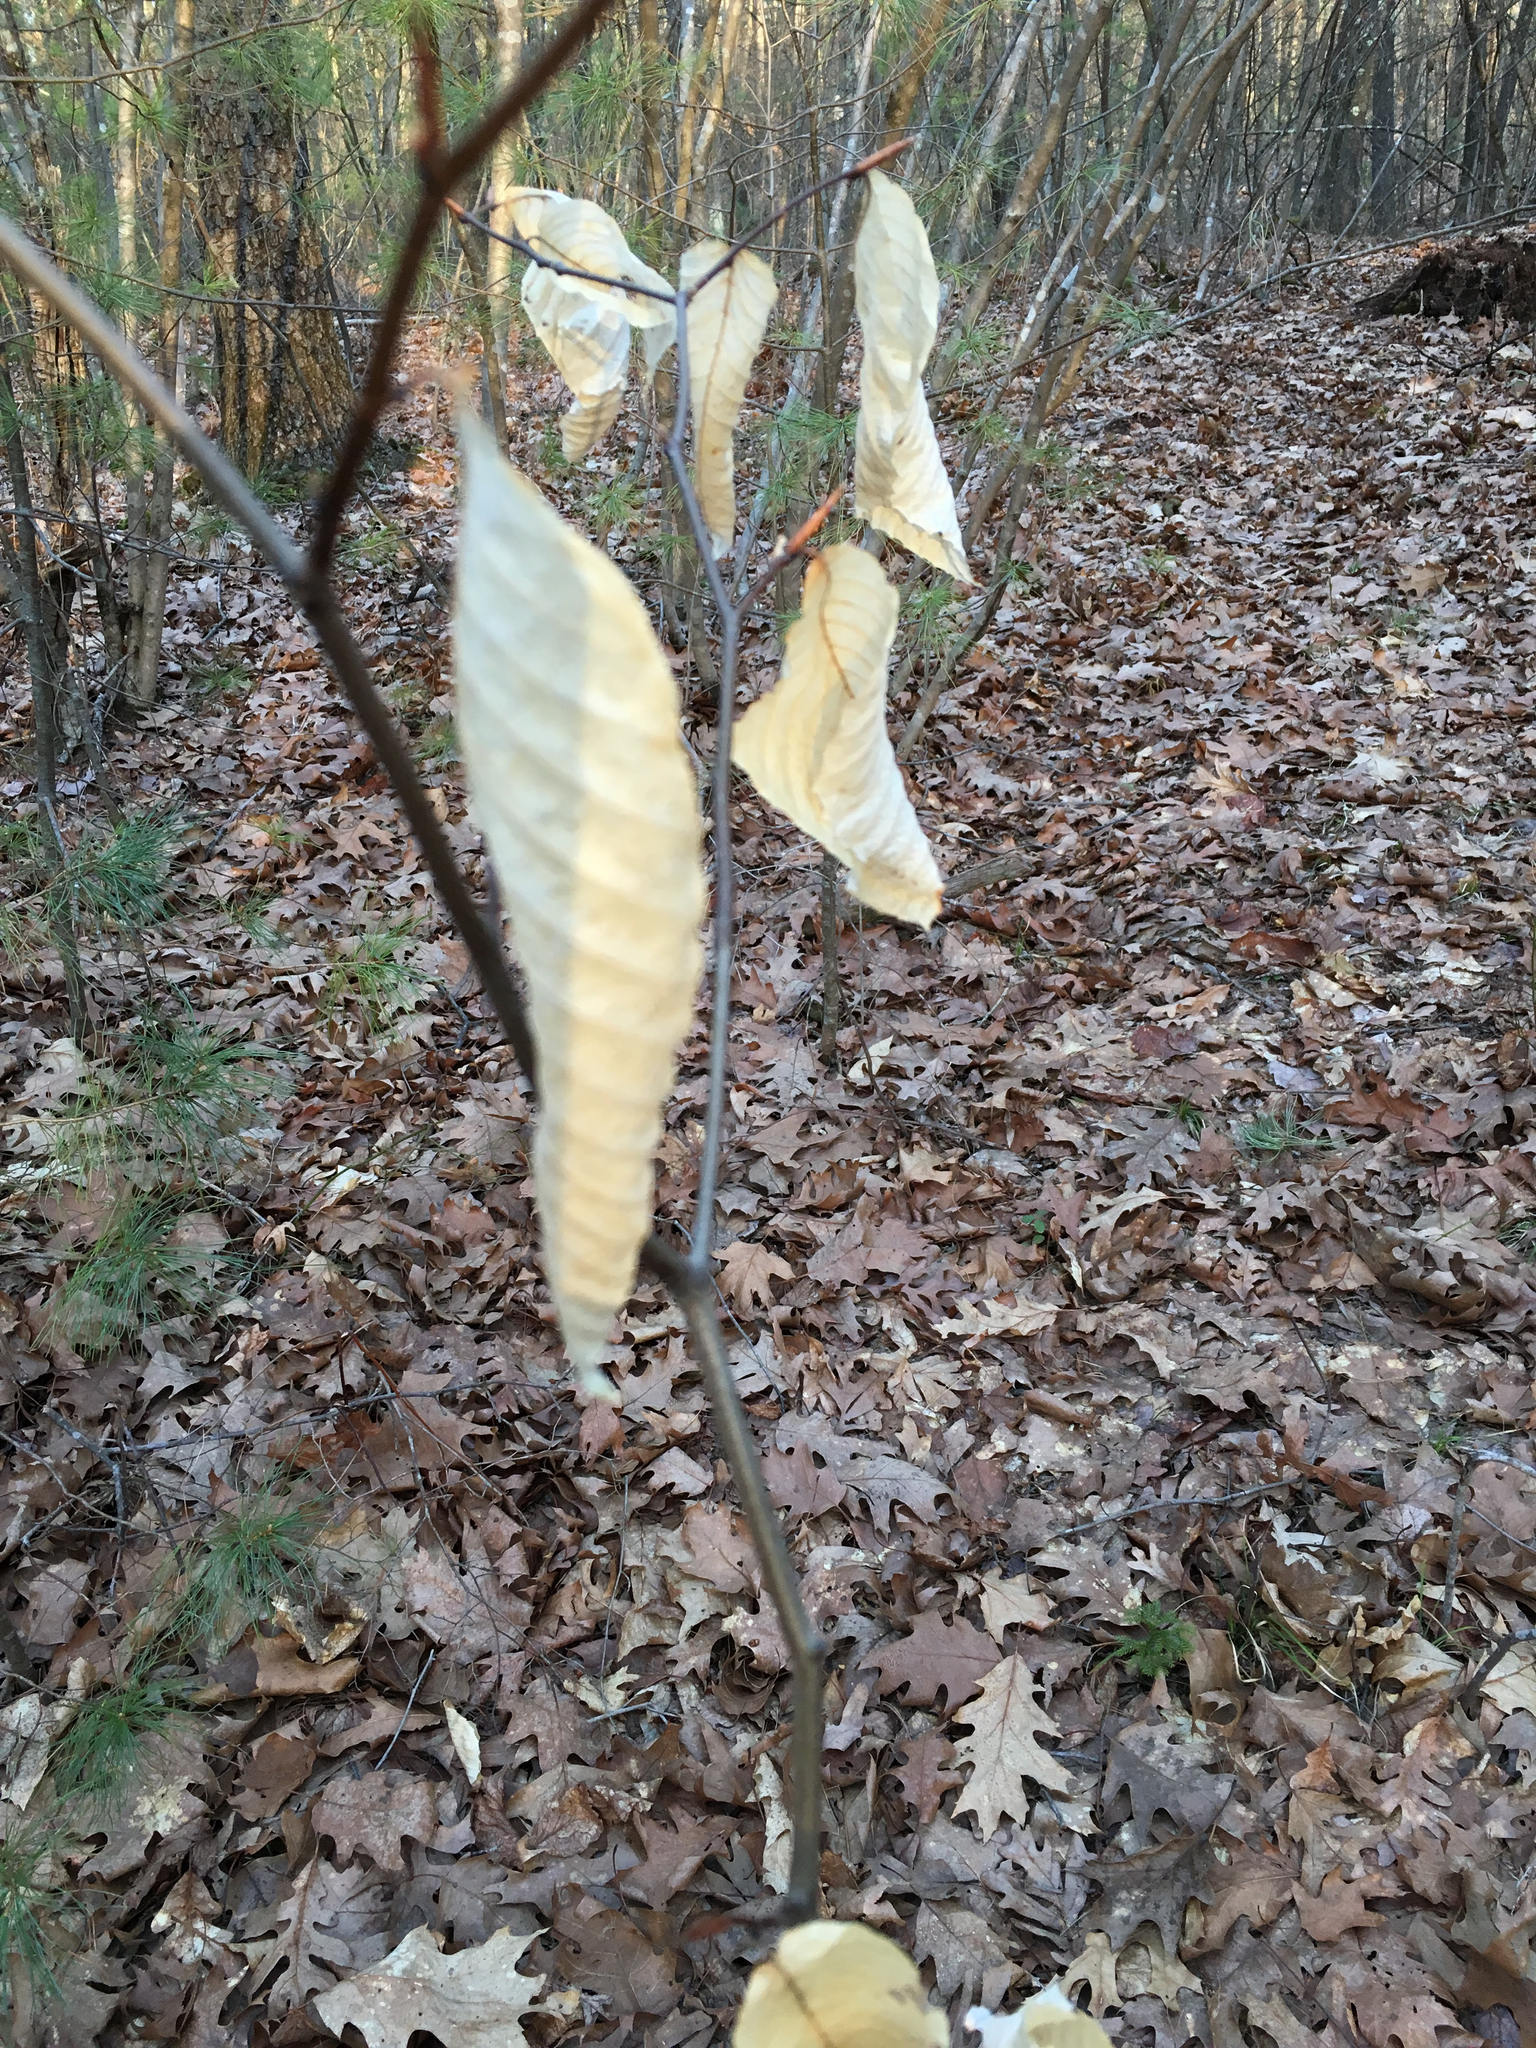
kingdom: Plantae
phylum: Tracheophyta
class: Magnoliopsida
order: Fagales
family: Fagaceae
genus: Fagus
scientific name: Fagus grandifolia
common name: American beech
